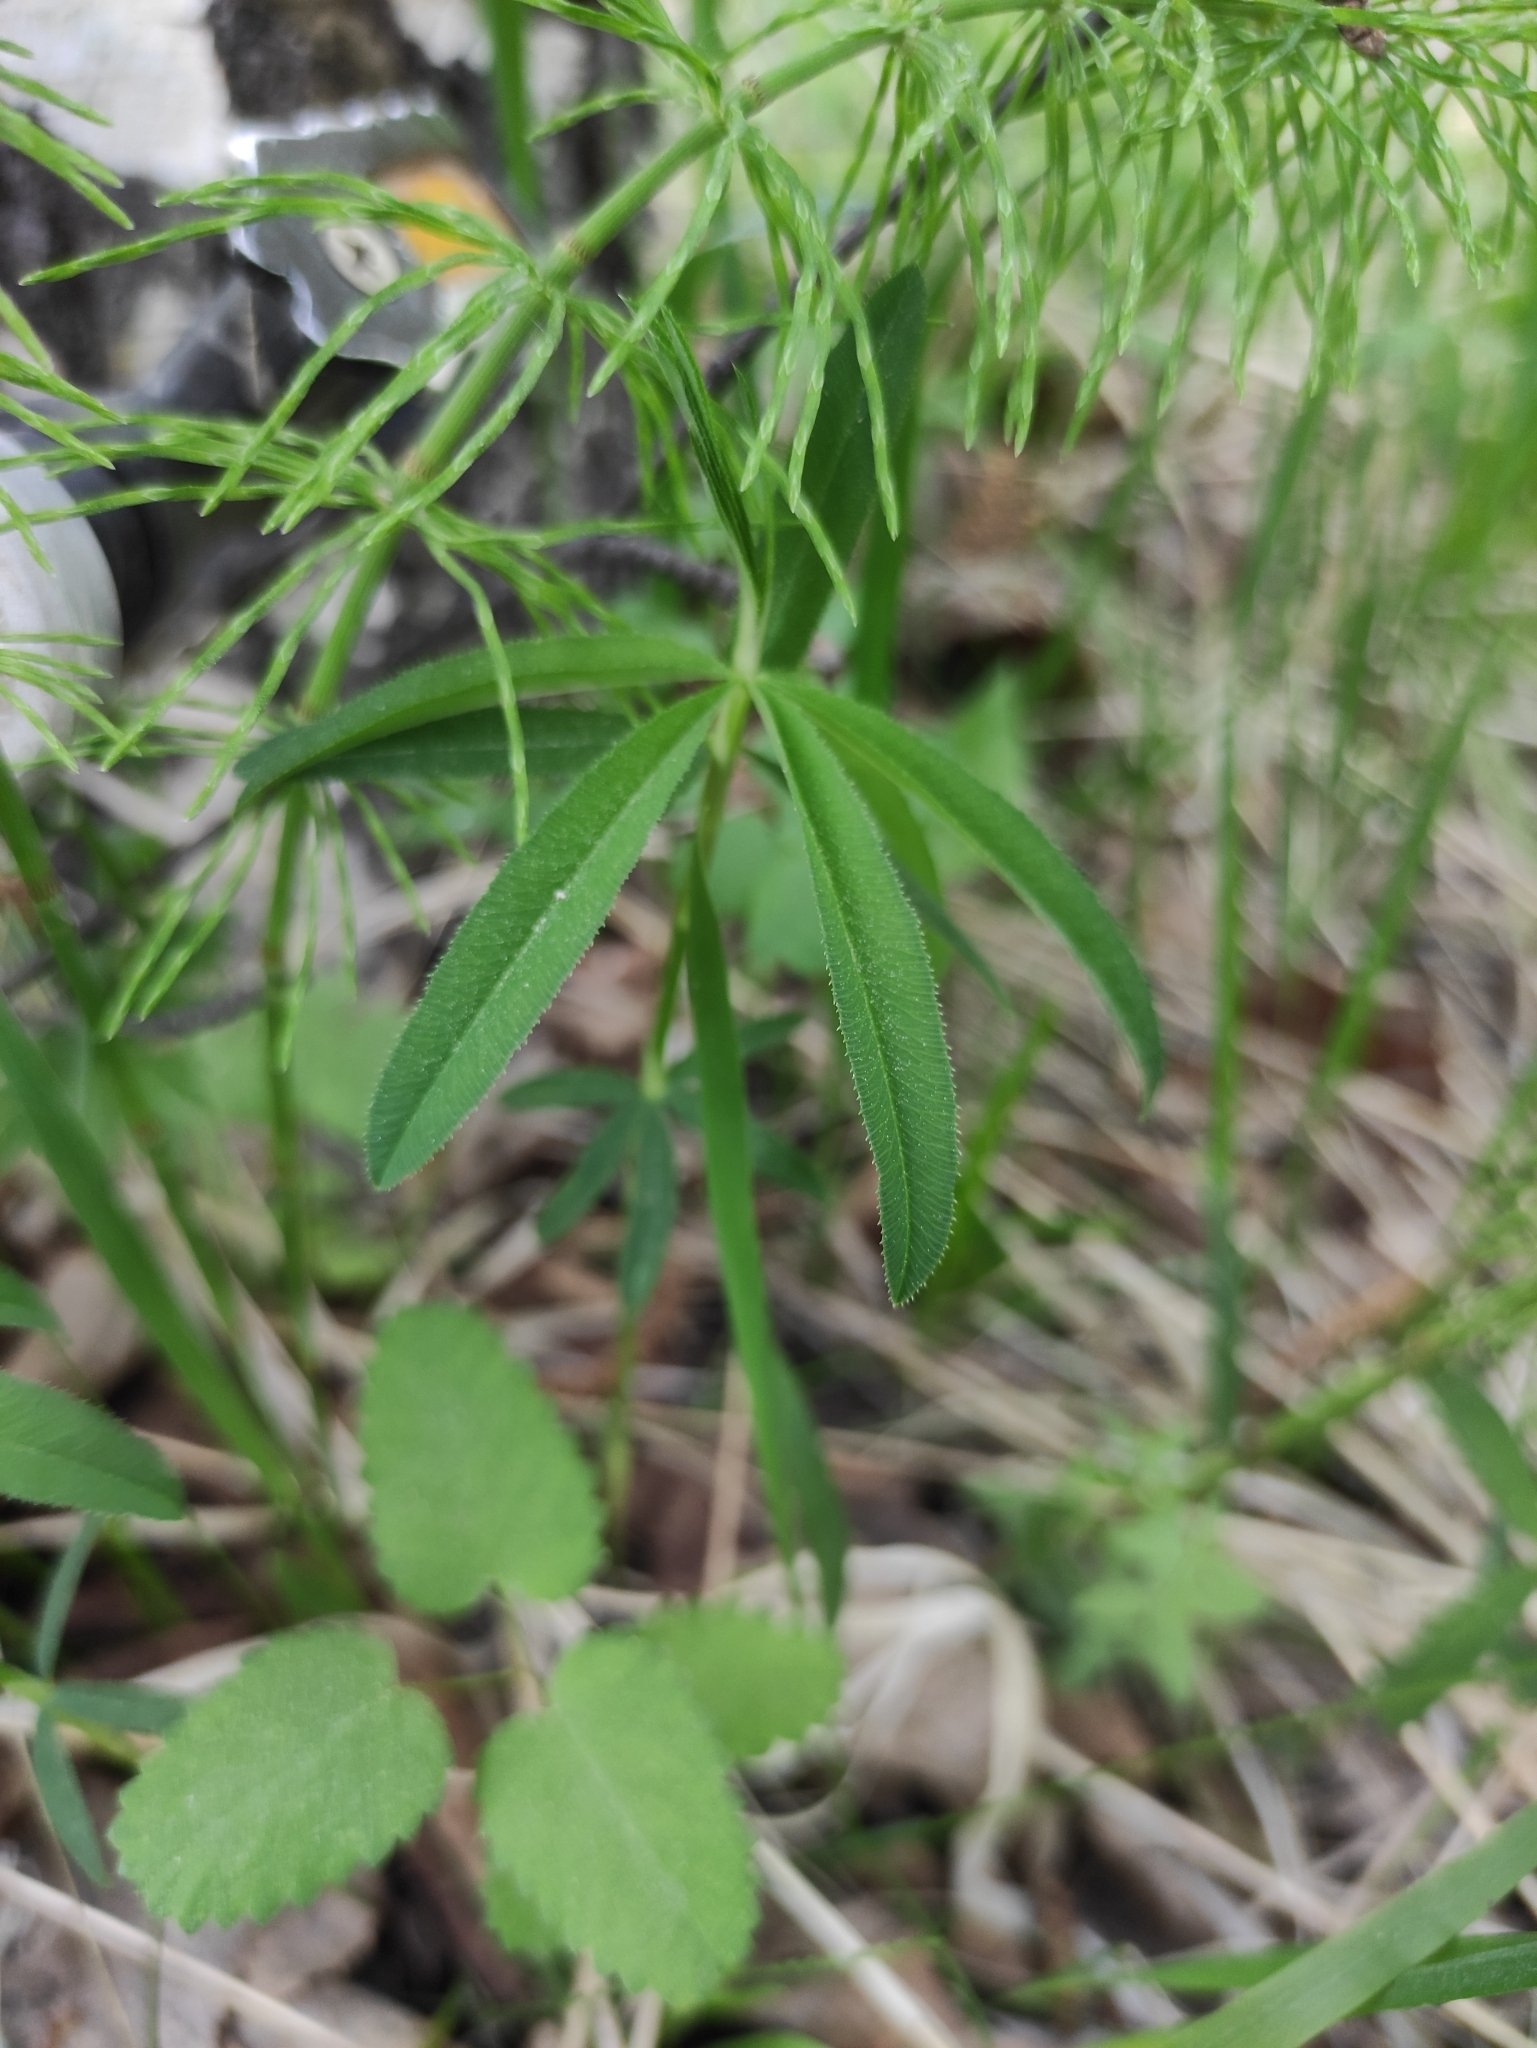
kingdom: Plantae
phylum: Tracheophyta
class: Magnoliopsida
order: Fabales
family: Fabaceae
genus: Trifolium
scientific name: Trifolium lupinaster
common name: Lupine clover
